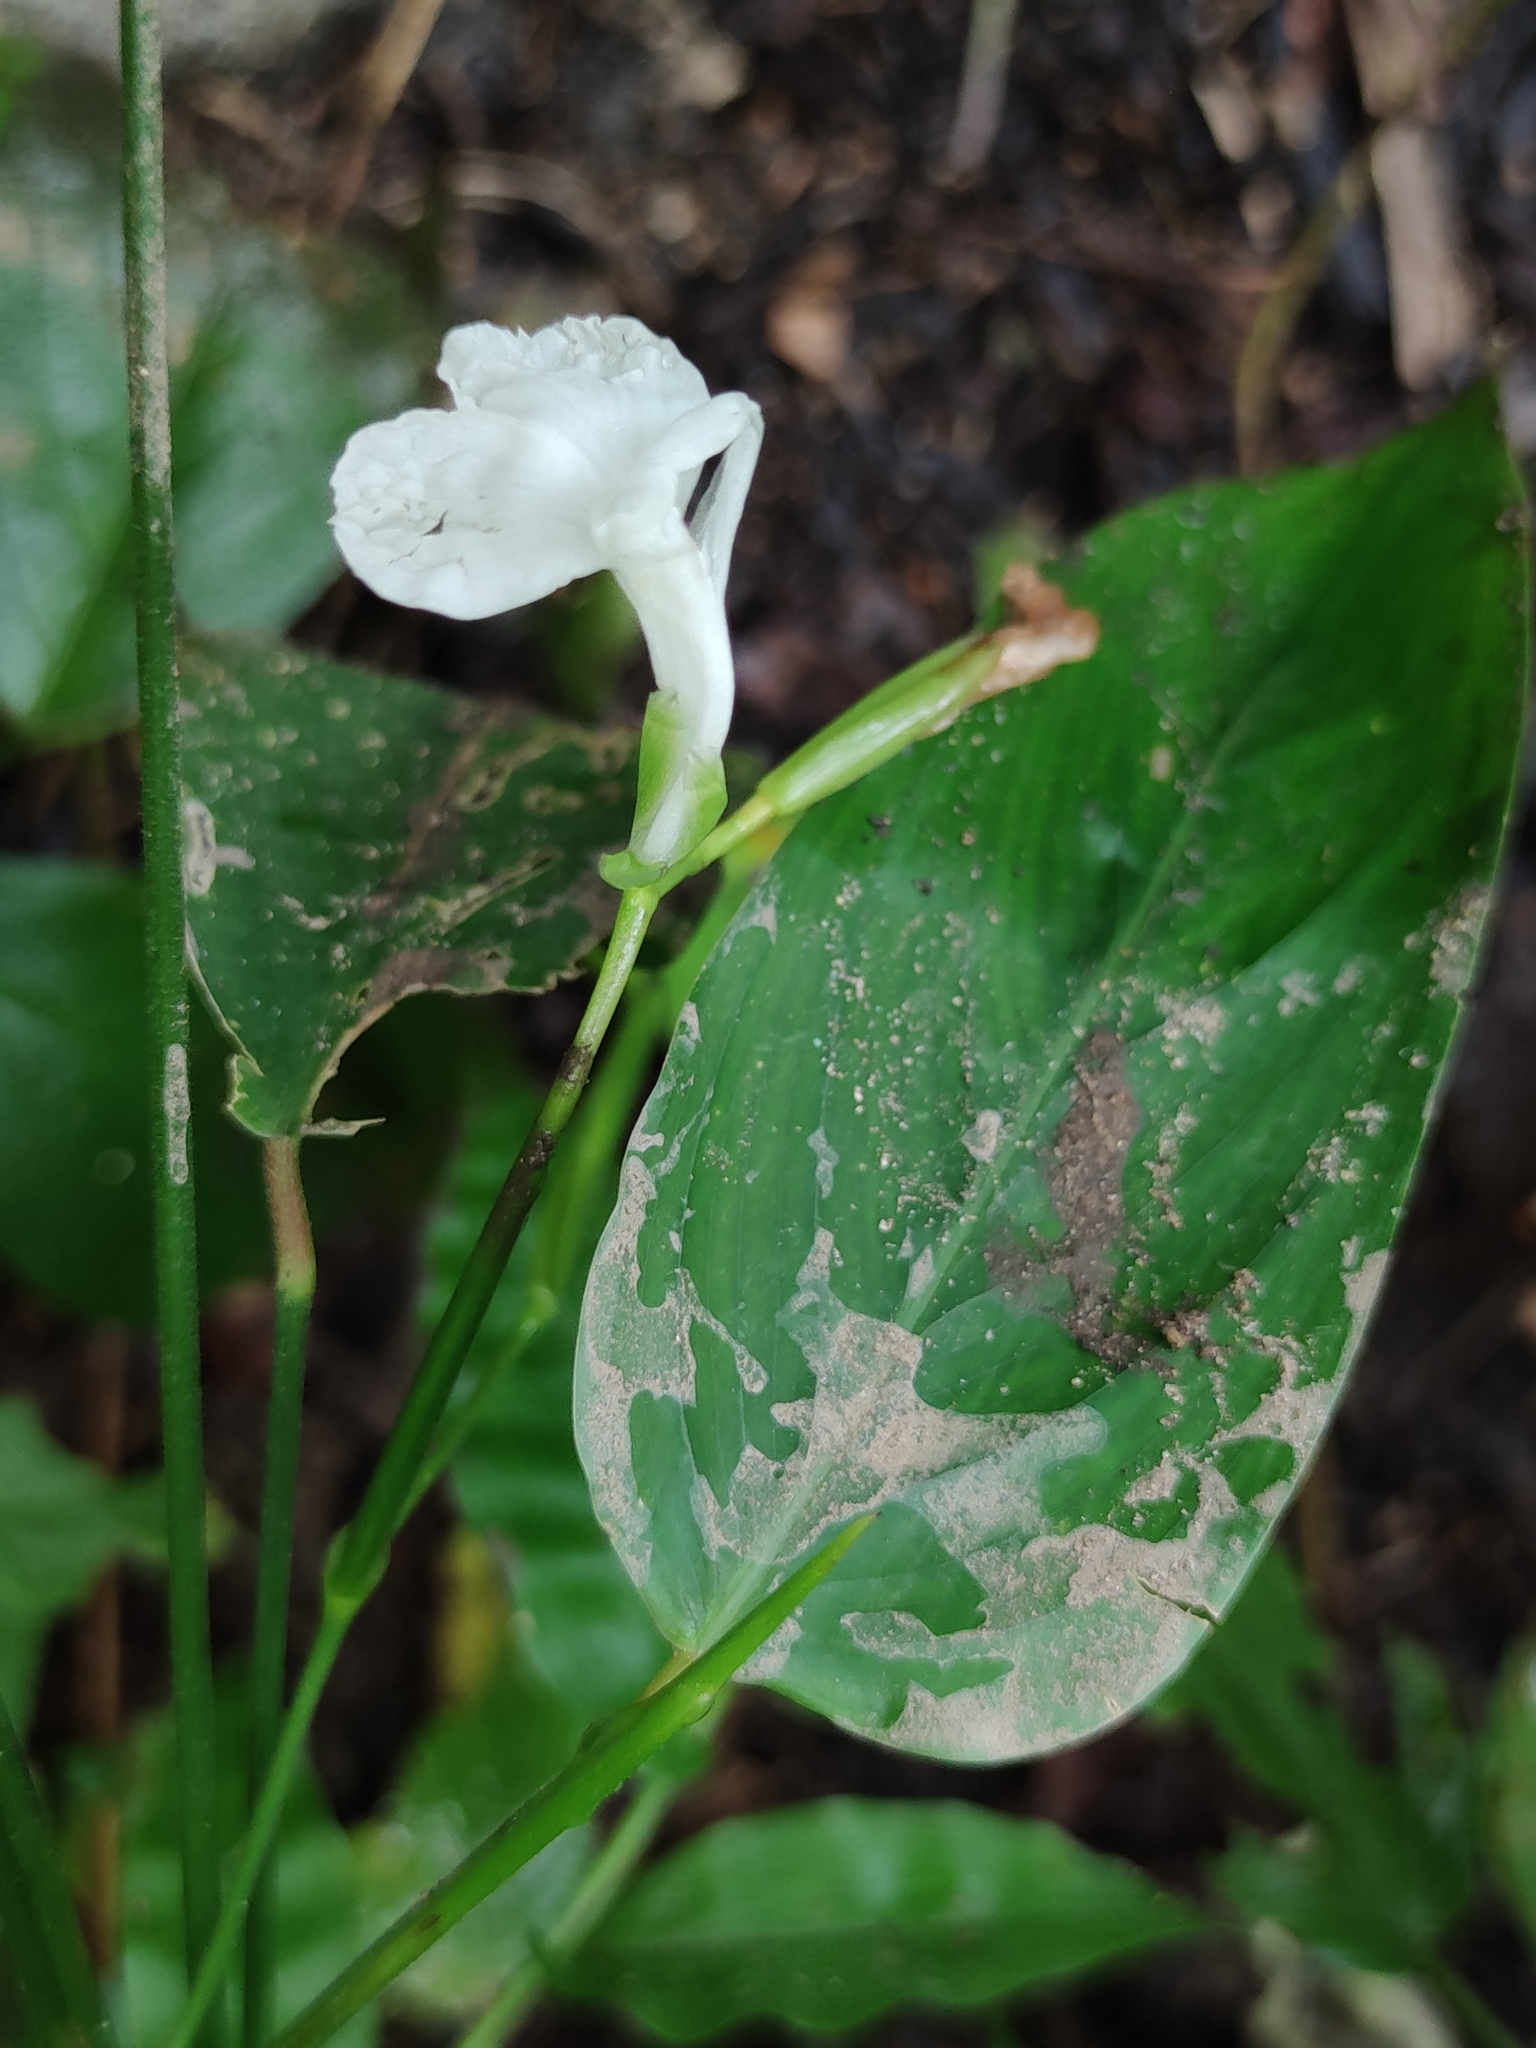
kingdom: Plantae
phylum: Tracheophyta
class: Liliopsida
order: Zingiberales
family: Marantaceae
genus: Maranta
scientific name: Maranta arundinacea
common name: Arrowroot
